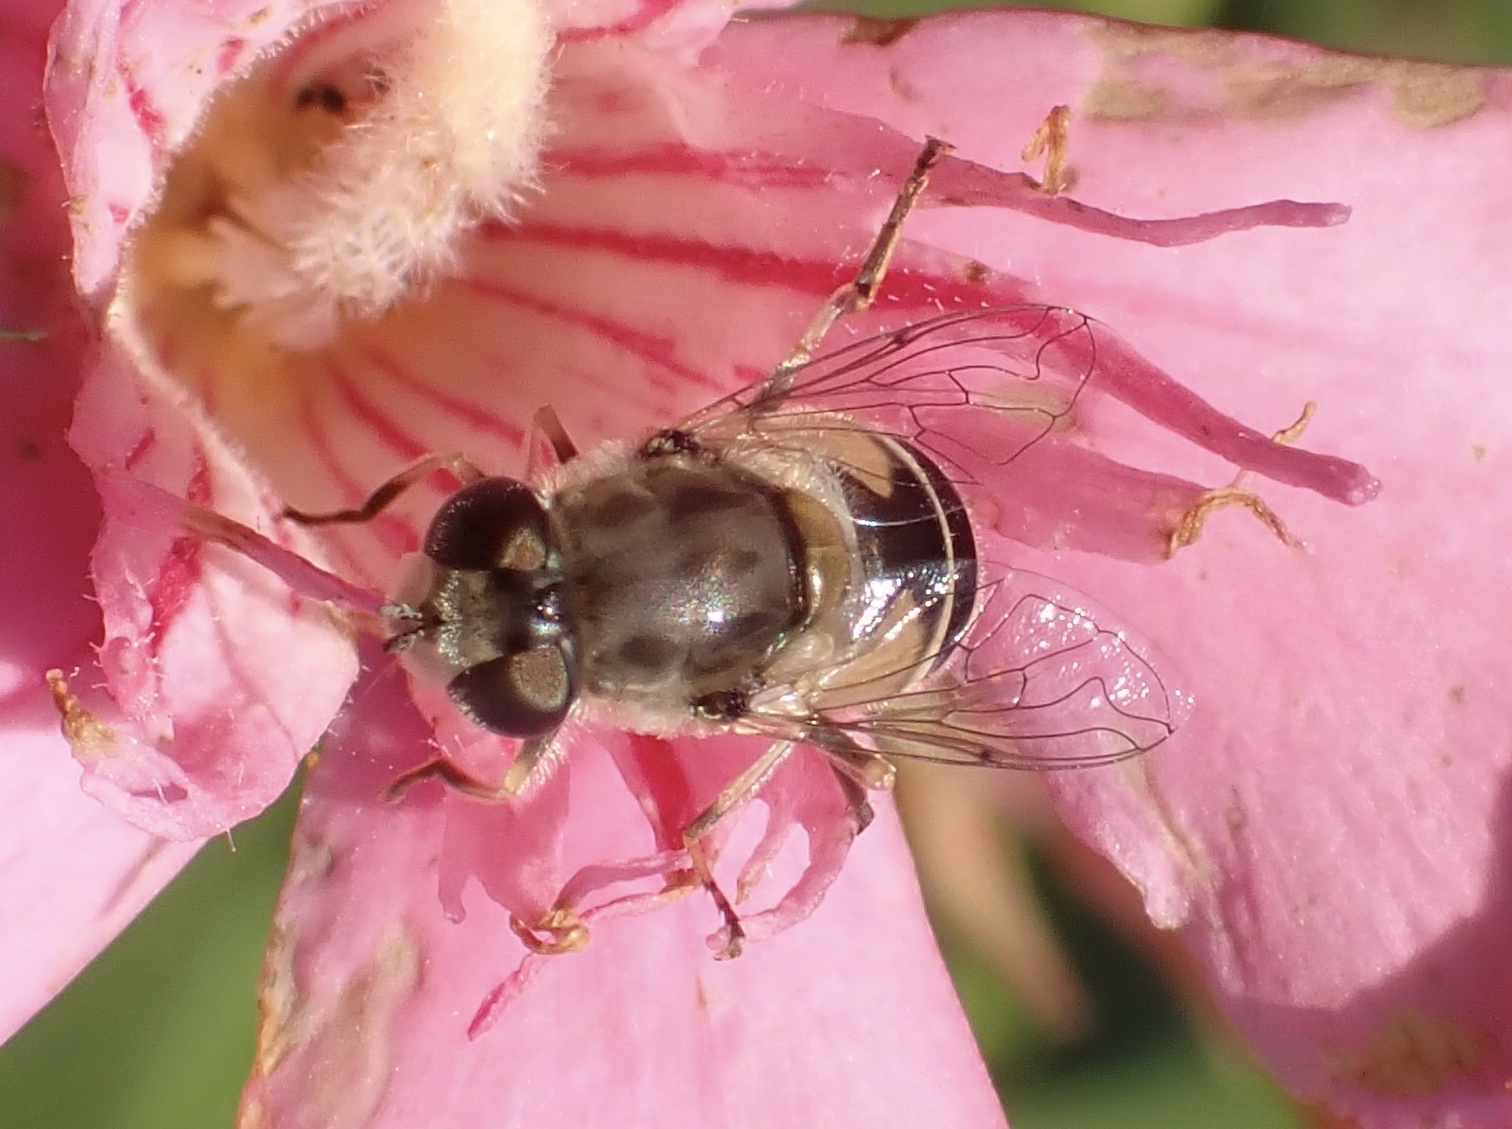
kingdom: Animalia
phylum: Arthropoda
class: Insecta
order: Diptera
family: Syrphidae
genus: Eristalis
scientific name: Eristalis arbustorum
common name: Hover fly
